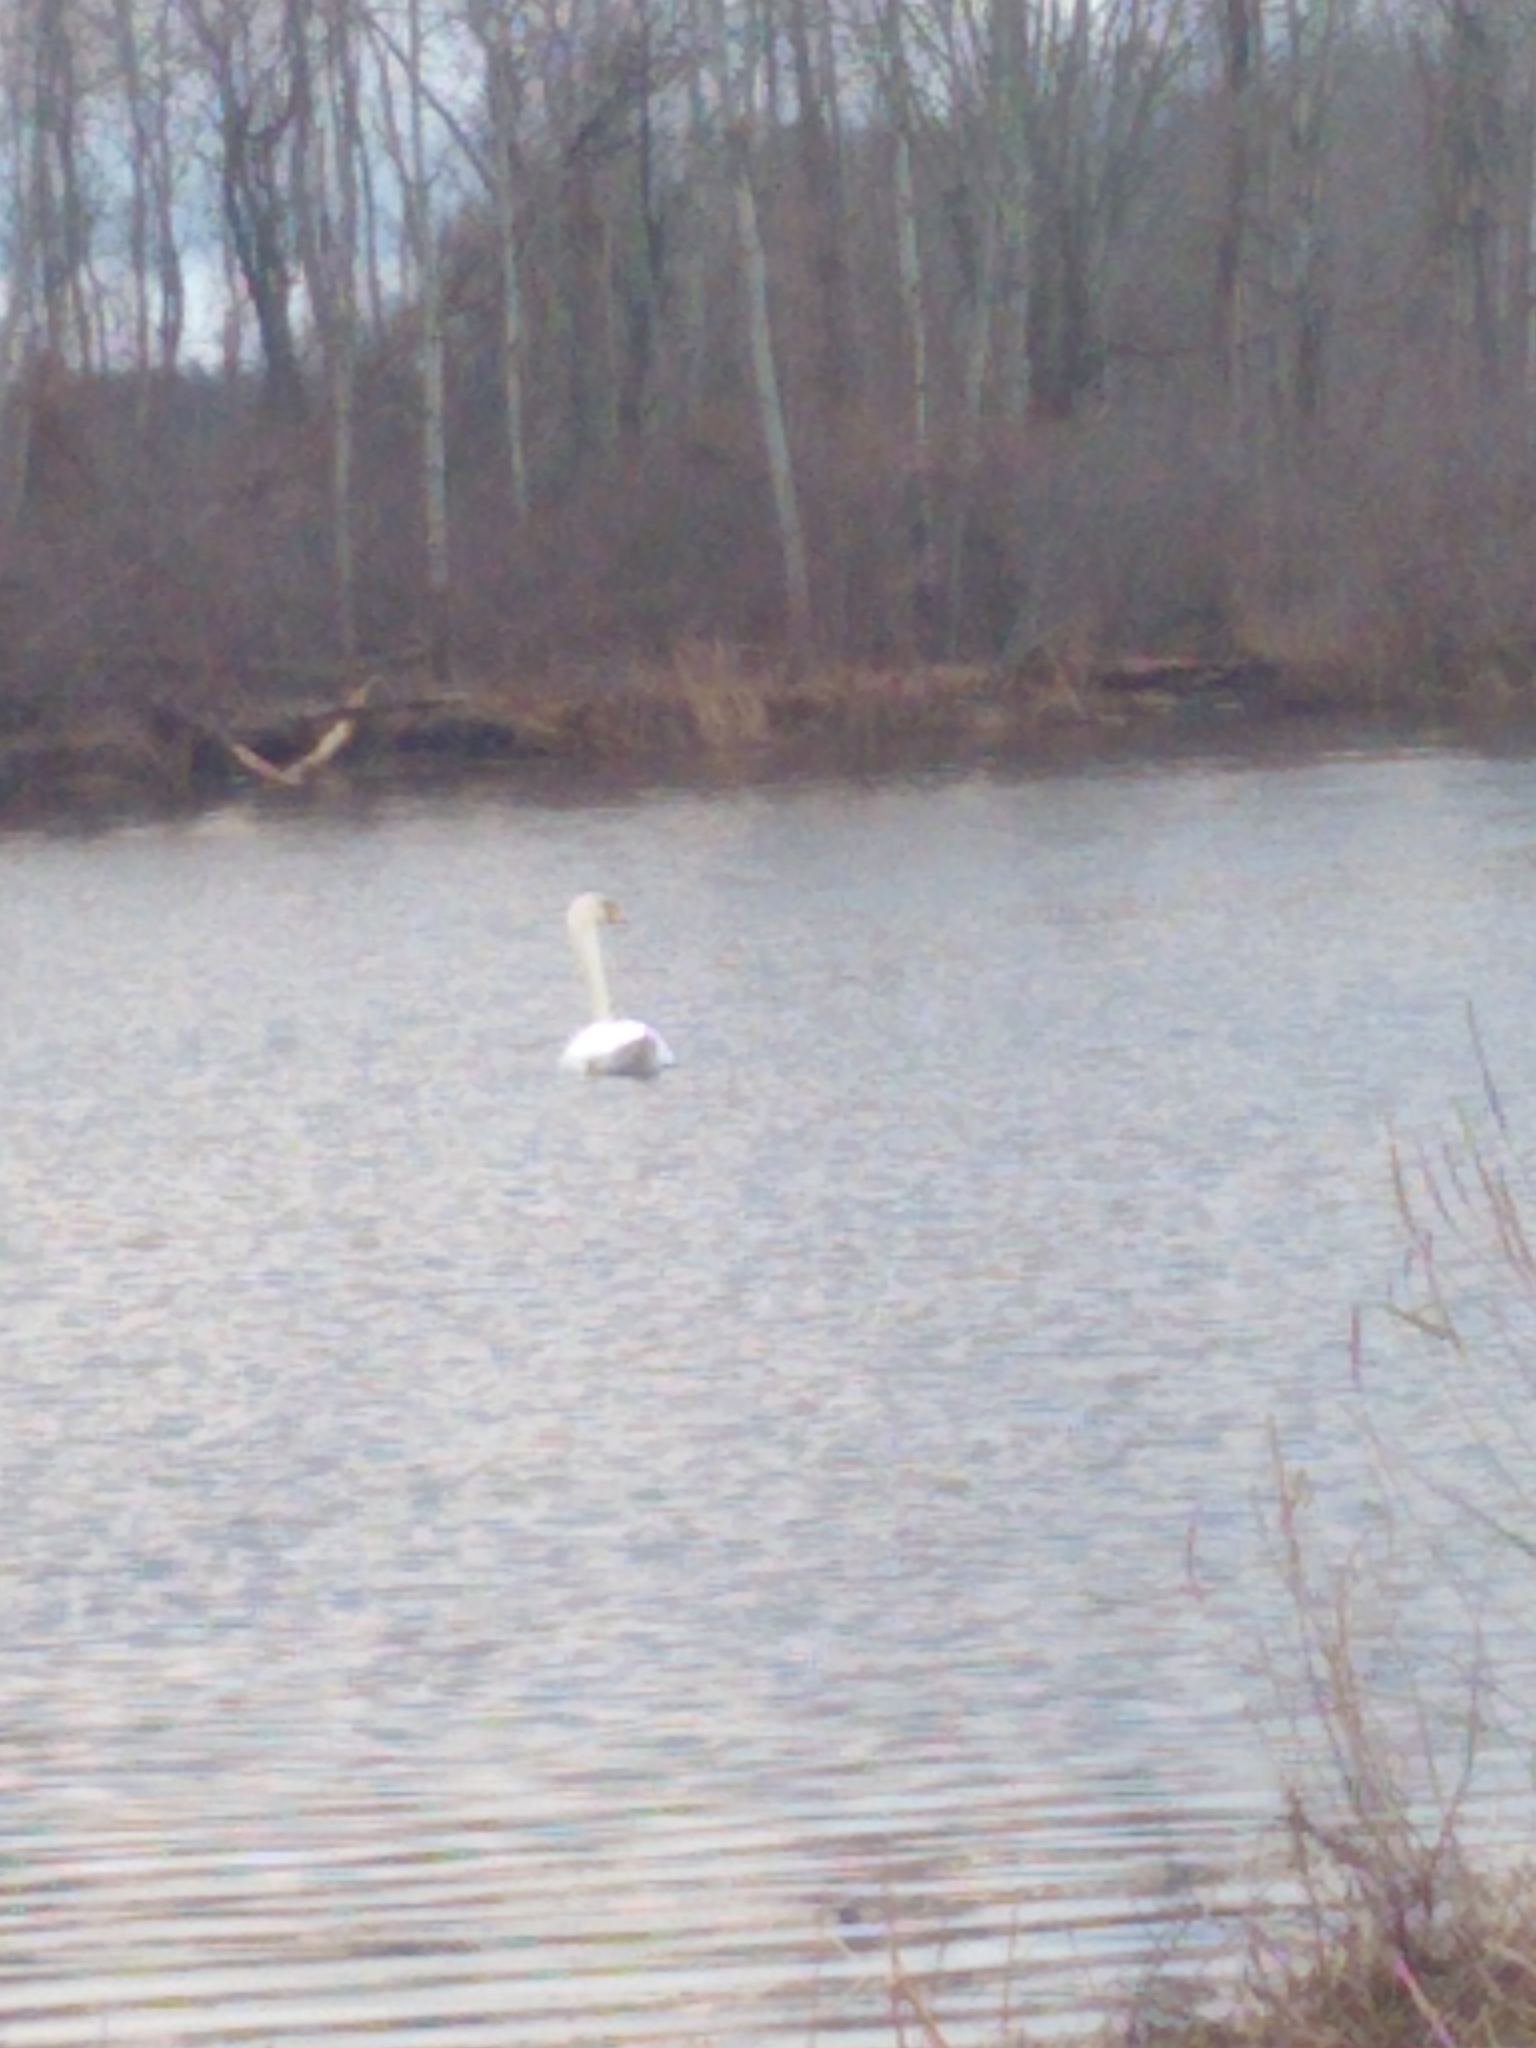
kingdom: Animalia
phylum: Chordata
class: Aves
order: Anseriformes
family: Anatidae
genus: Cygnus
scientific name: Cygnus olor
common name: Mute swan
